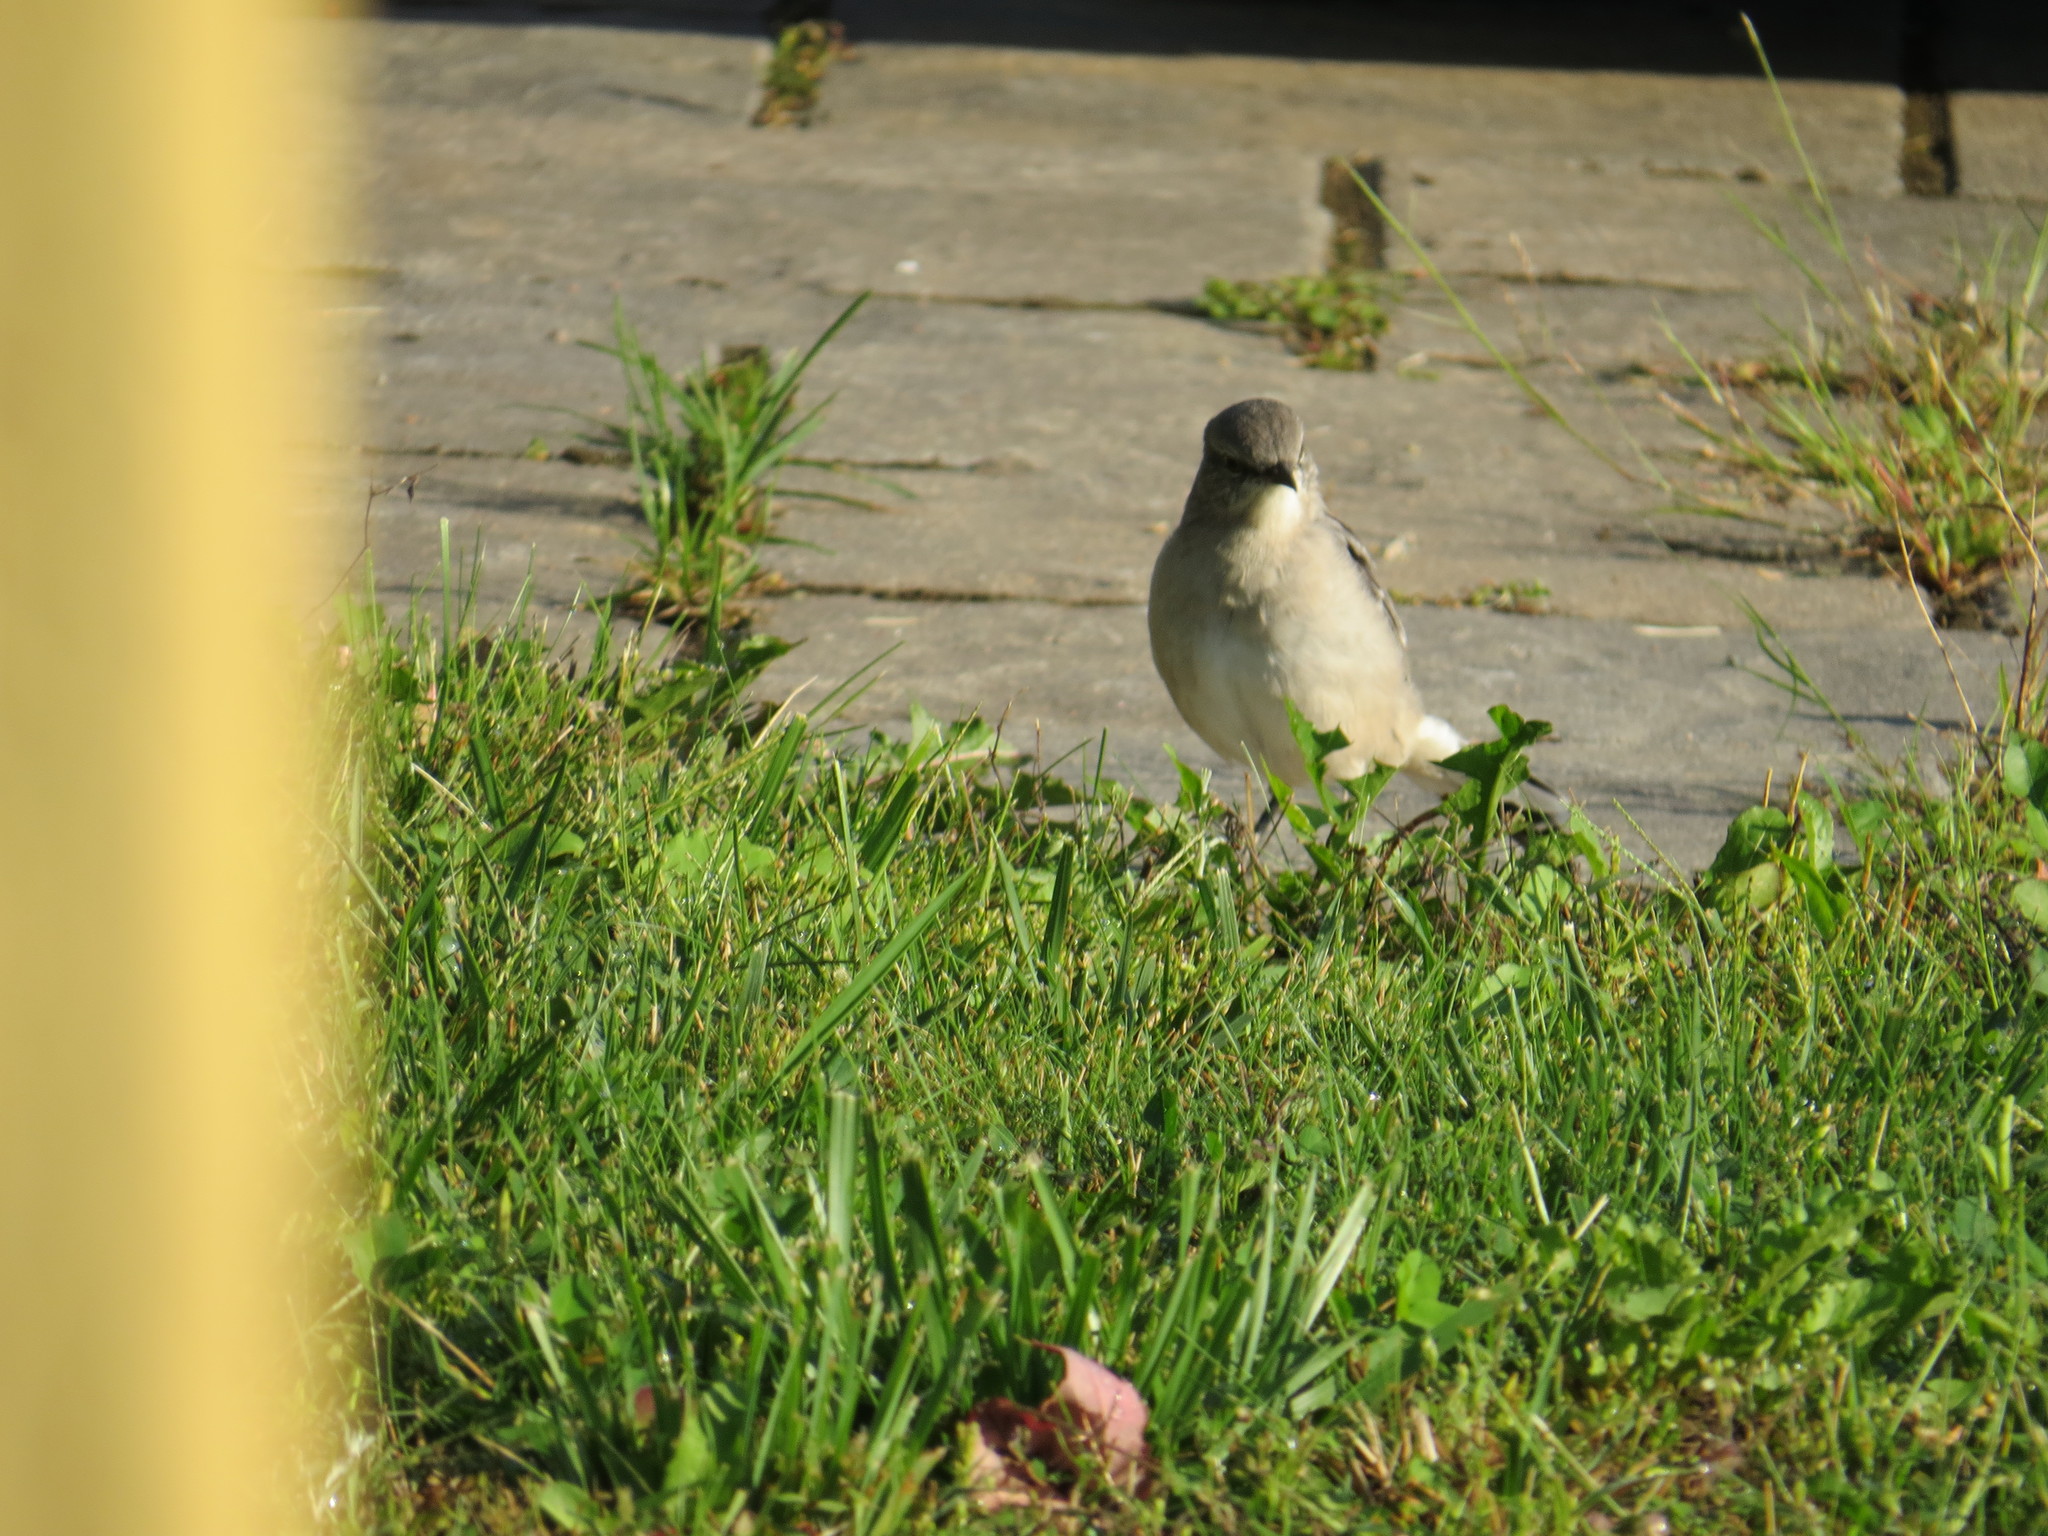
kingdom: Animalia
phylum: Chordata
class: Aves
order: Passeriformes
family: Mimidae
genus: Mimus
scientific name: Mimus polyglottos
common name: Northern mockingbird
